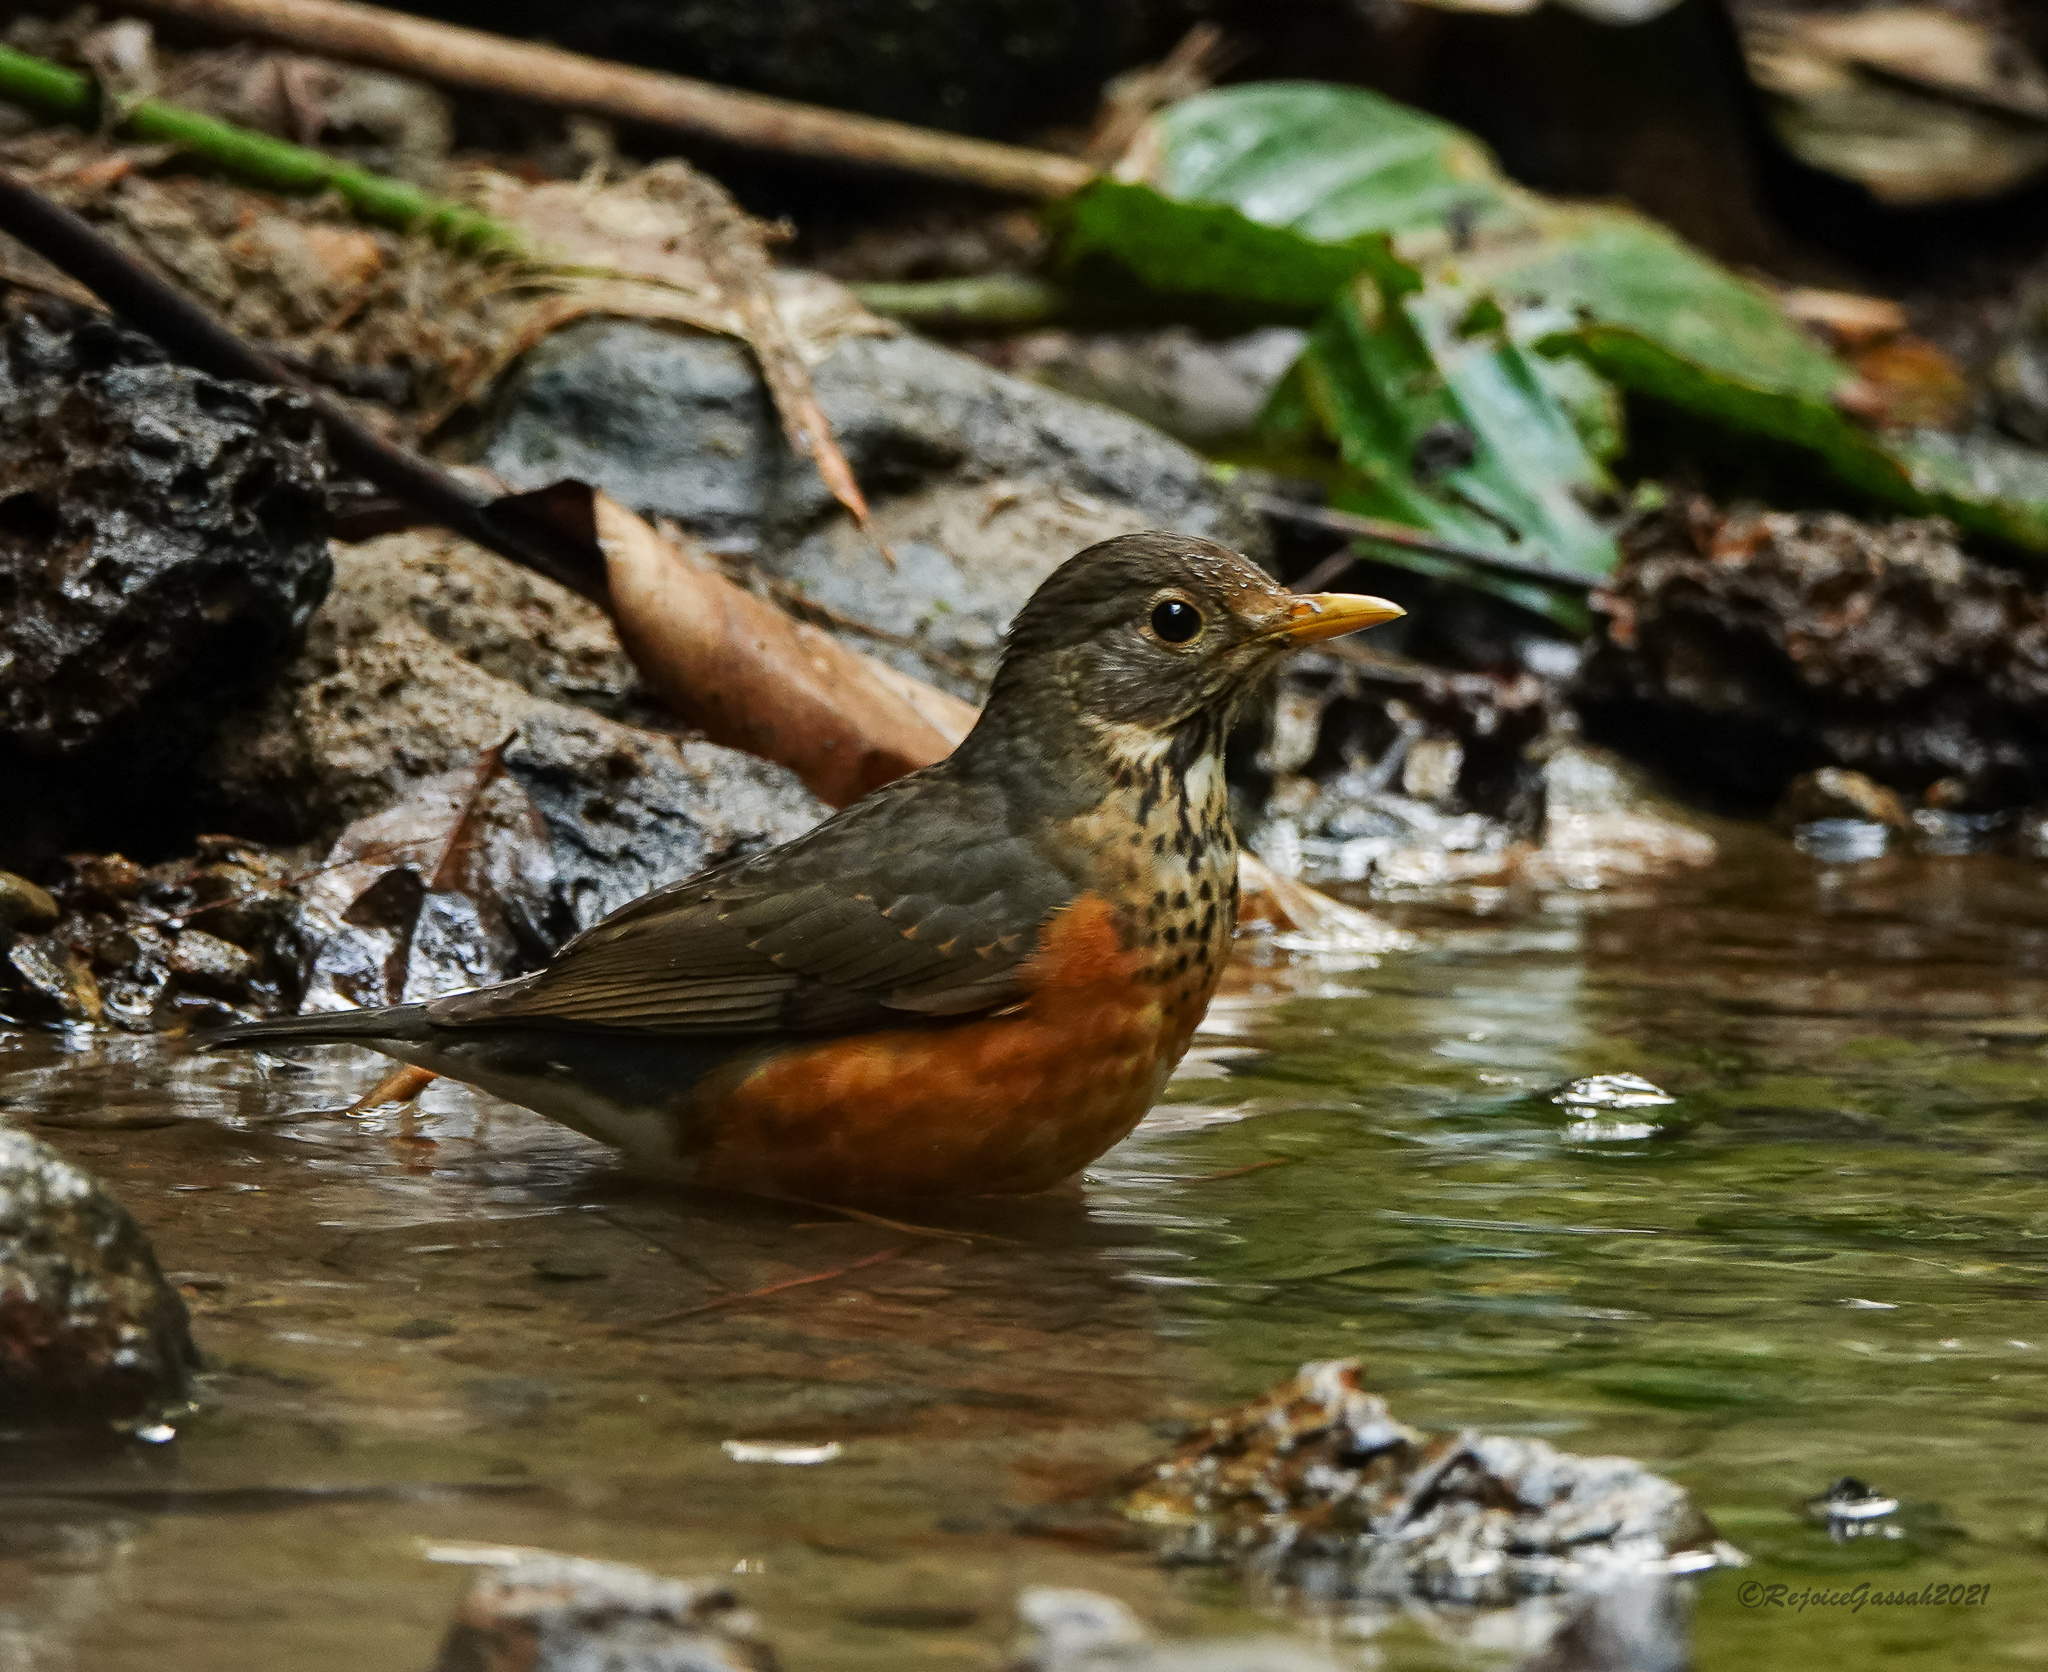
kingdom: Animalia
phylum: Chordata
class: Aves
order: Passeriformes
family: Turdidae
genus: Turdus
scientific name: Turdus dissimilis
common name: Black-breasted thrush
